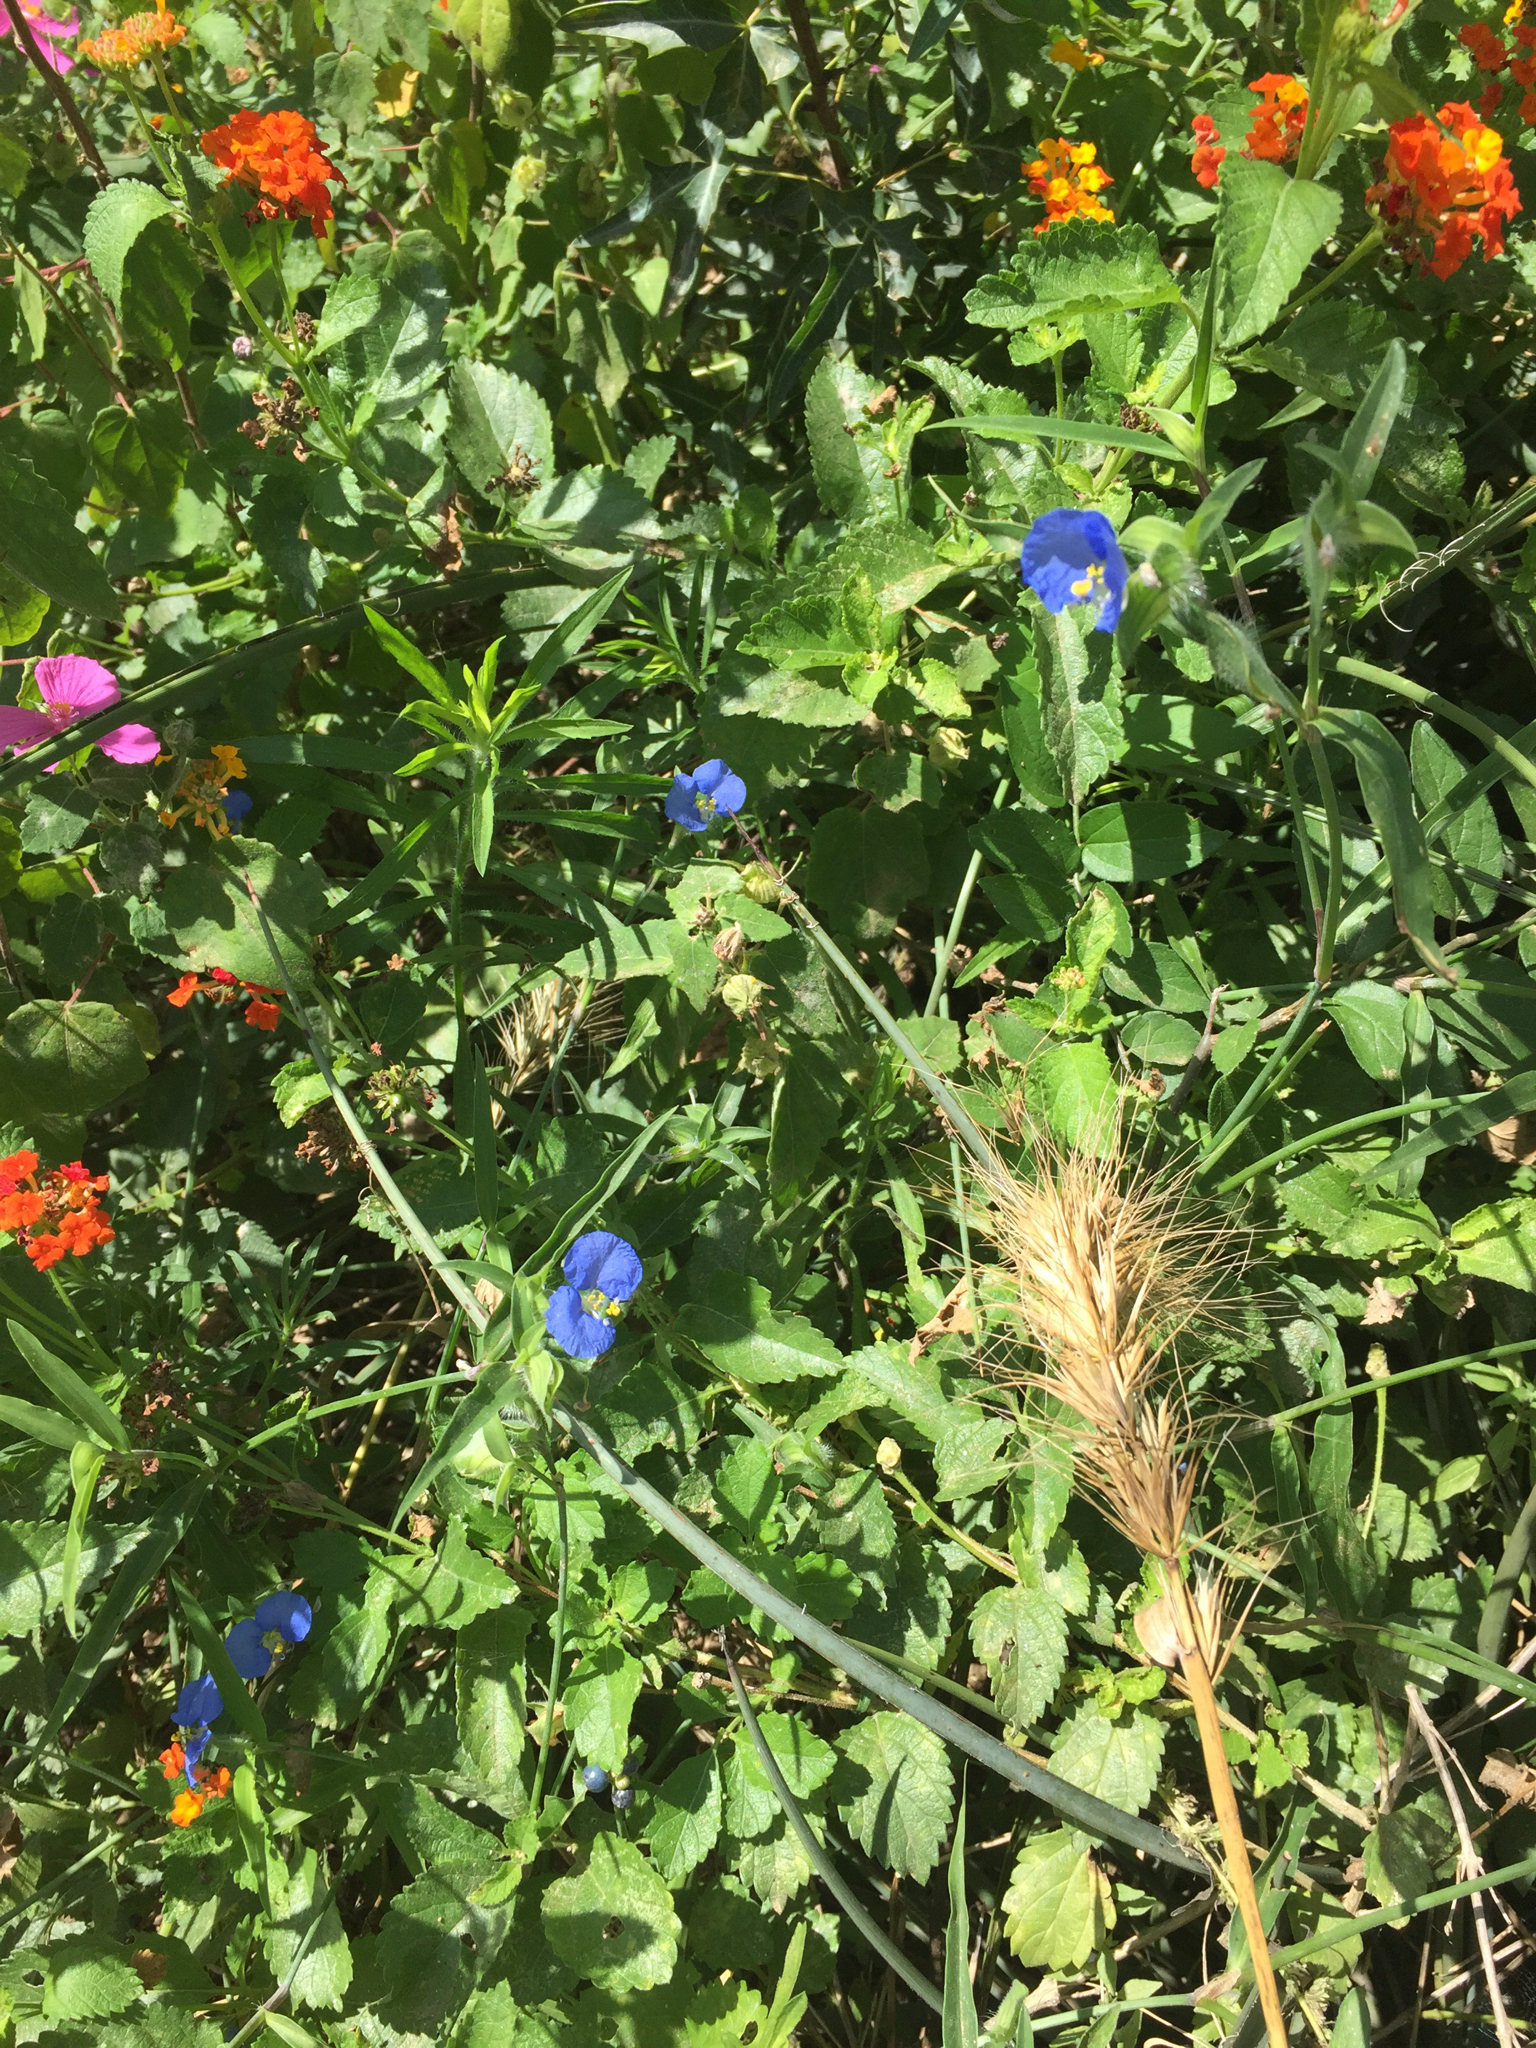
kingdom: Plantae
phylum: Tracheophyta
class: Liliopsida
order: Commelinales
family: Commelinaceae
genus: Commelina
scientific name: Commelina erecta
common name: Blousel blommetjie
